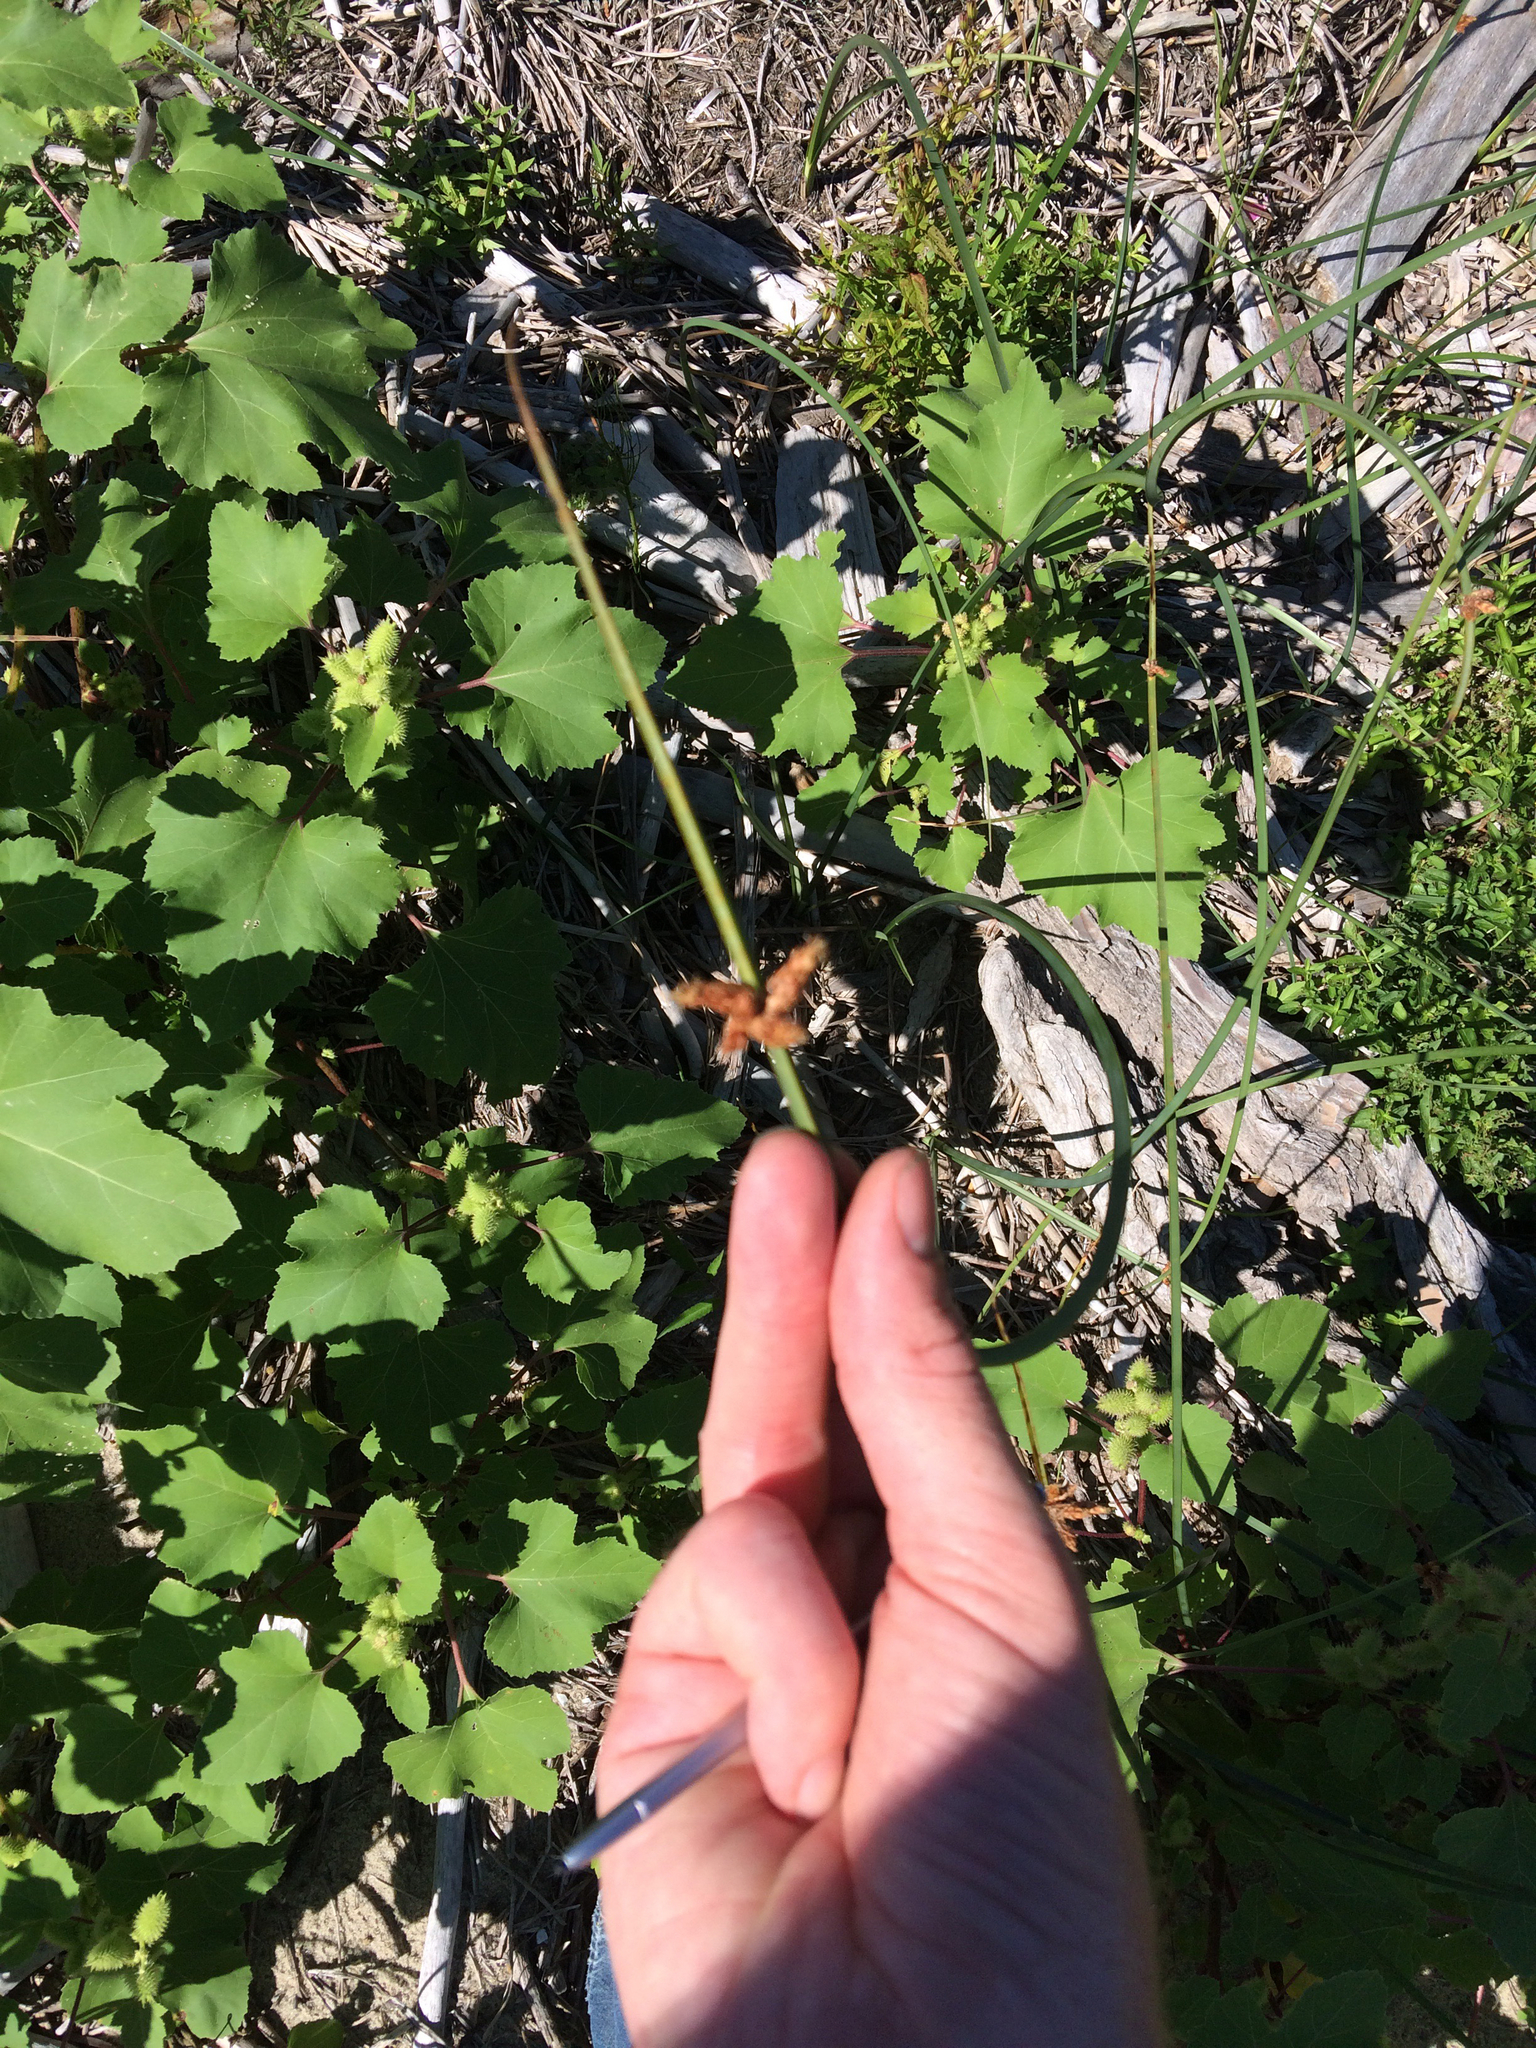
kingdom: Plantae
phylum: Tracheophyta
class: Liliopsida
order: Poales
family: Cyperaceae
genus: Schoenoplectus
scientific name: Schoenoplectus pungens
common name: Sharp club-rush
